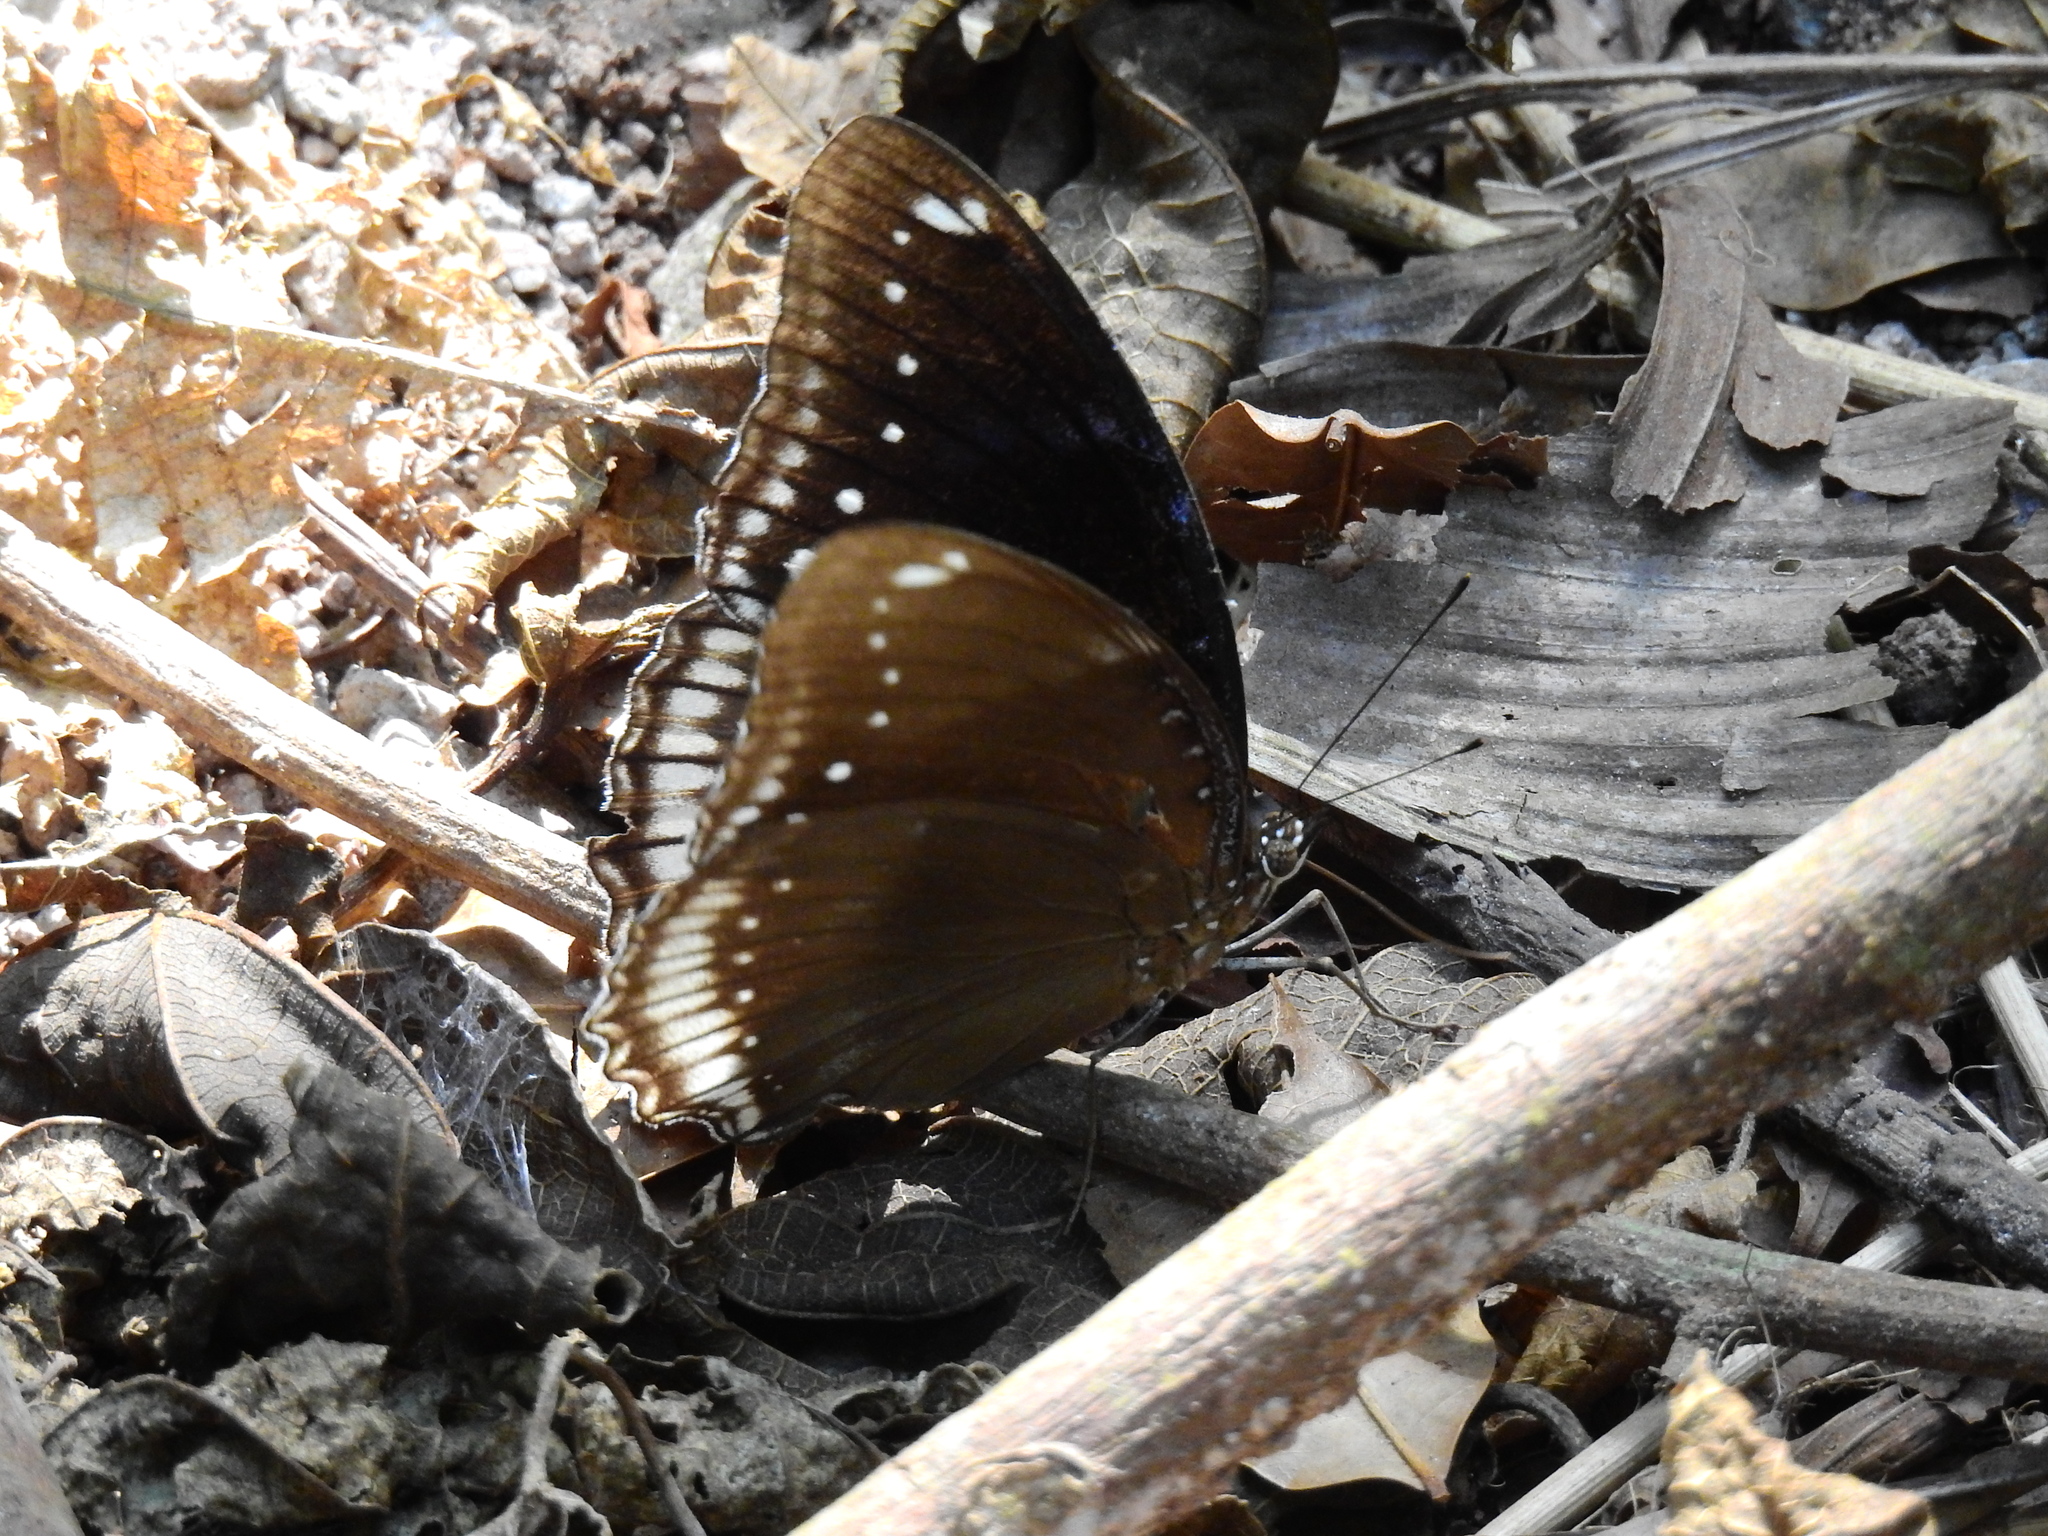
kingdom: Animalia
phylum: Arthropoda
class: Insecta
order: Lepidoptera
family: Nymphalidae
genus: Hypolimnas
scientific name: Hypolimnas bolina
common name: Great eggfly
